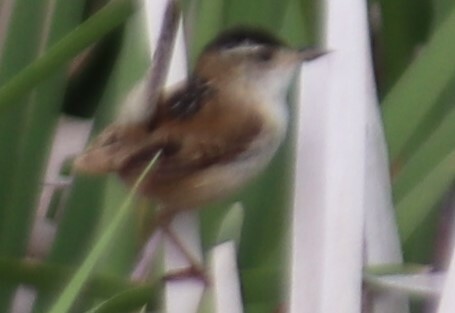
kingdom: Animalia
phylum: Chordata
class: Aves
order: Passeriformes
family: Troglodytidae
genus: Cistothorus
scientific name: Cistothorus palustris
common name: Marsh wren
